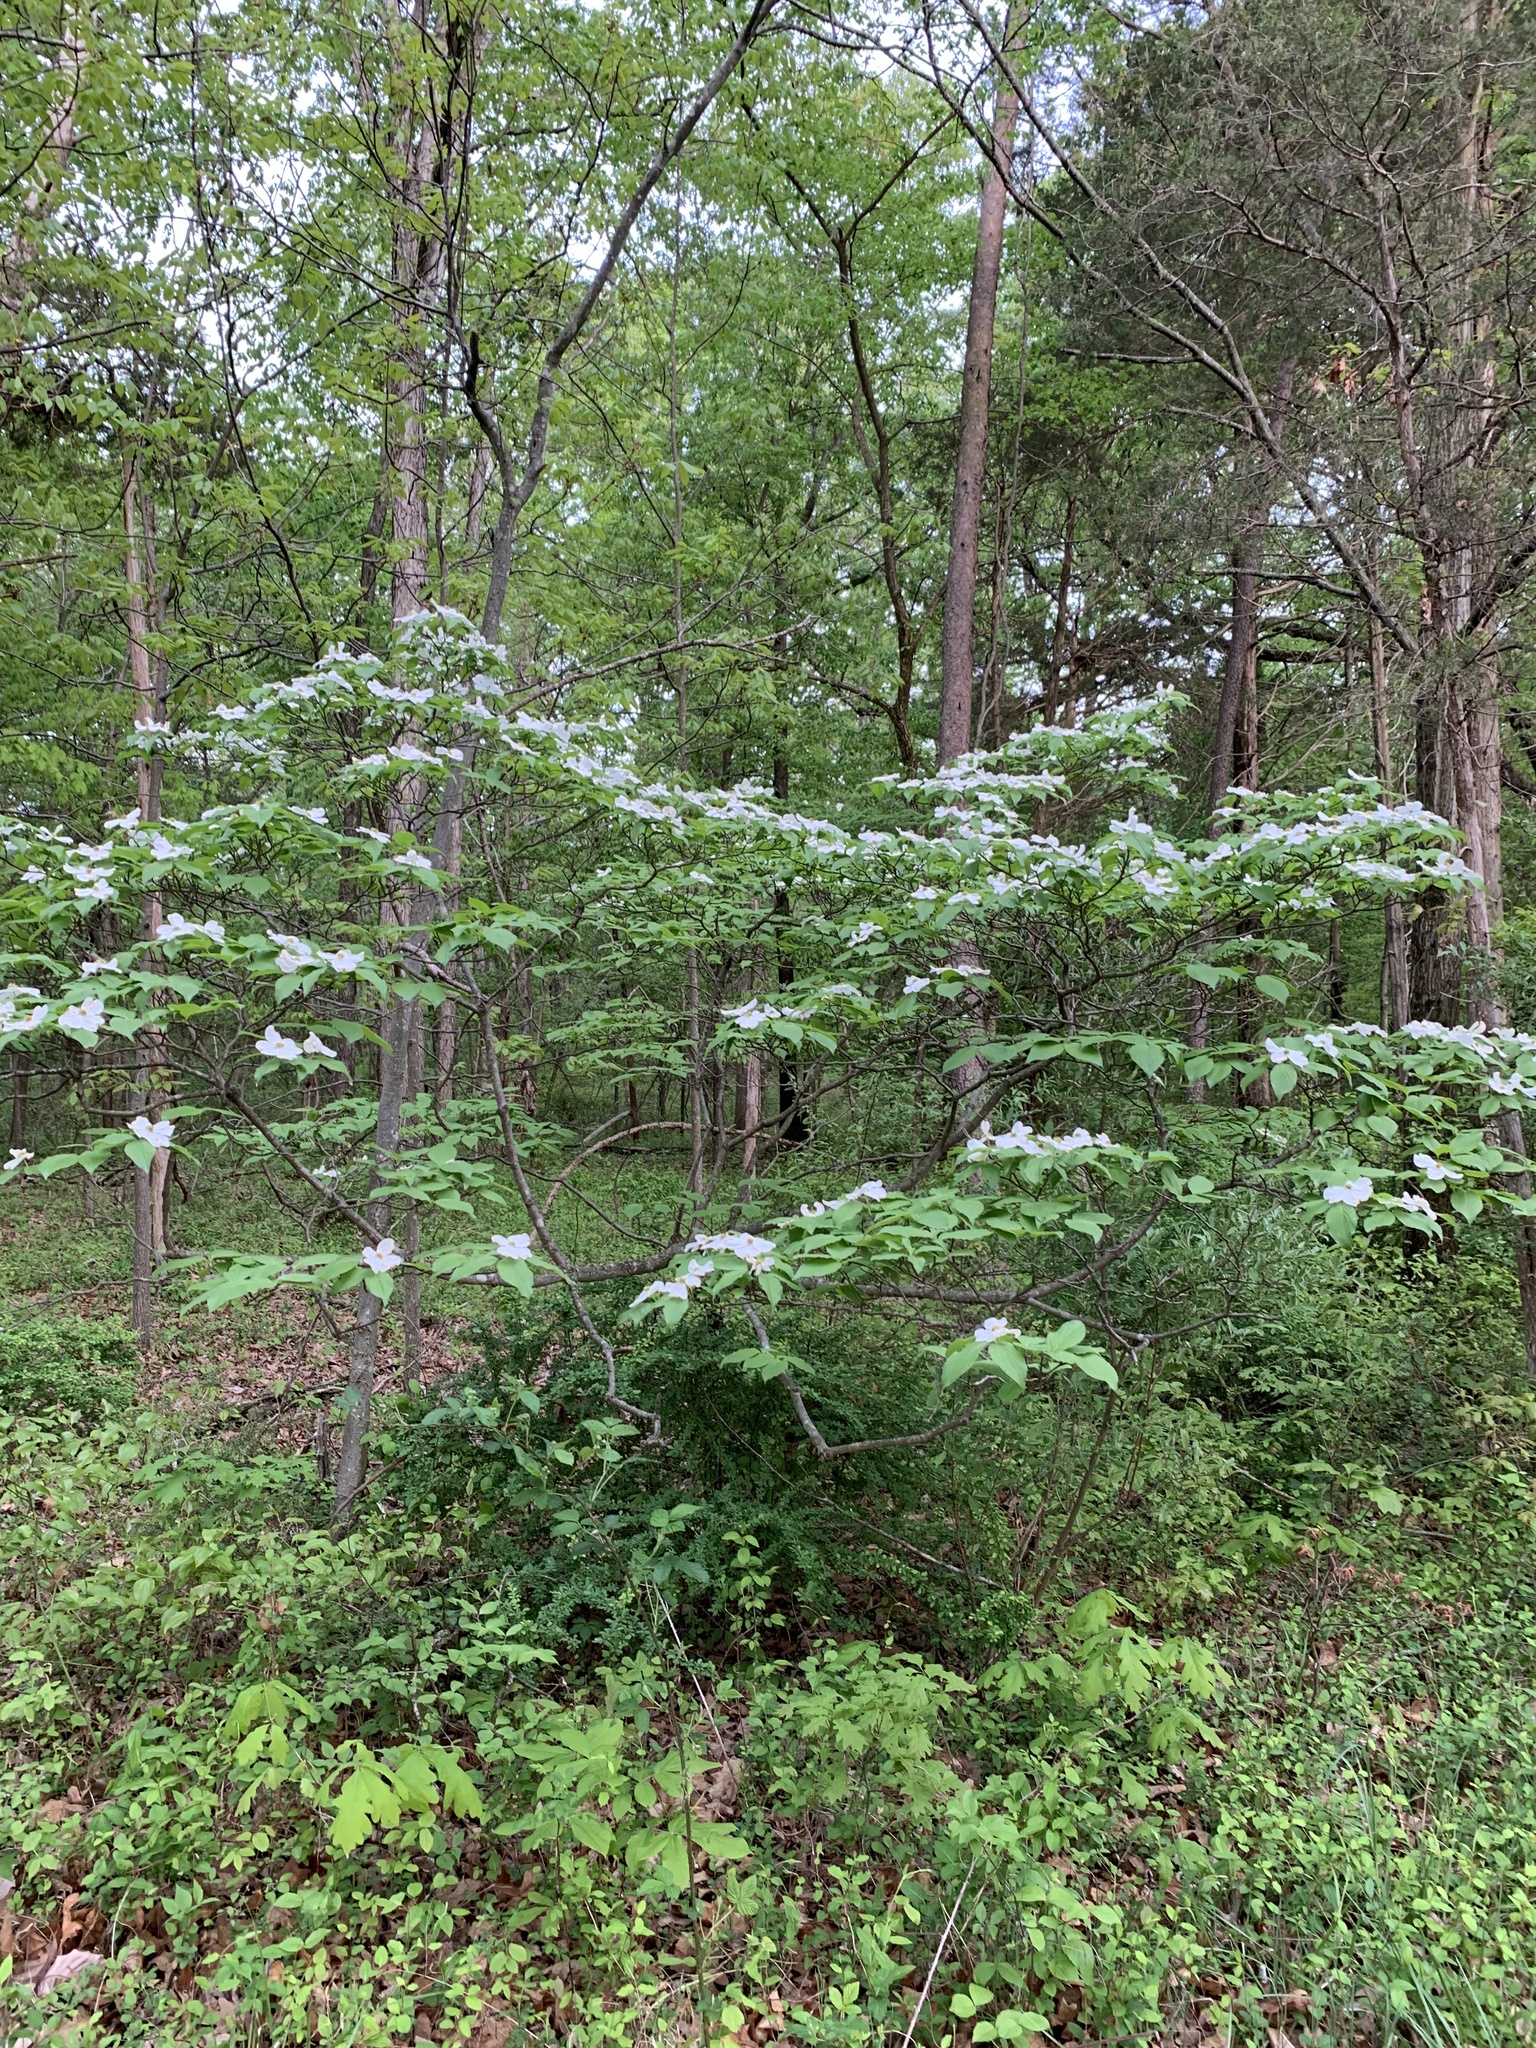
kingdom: Plantae
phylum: Tracheophyta
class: Magnoliopsida
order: Cornales
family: Cornaceae
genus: Cornus
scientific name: Cornus florida
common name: Flowering dogwood
